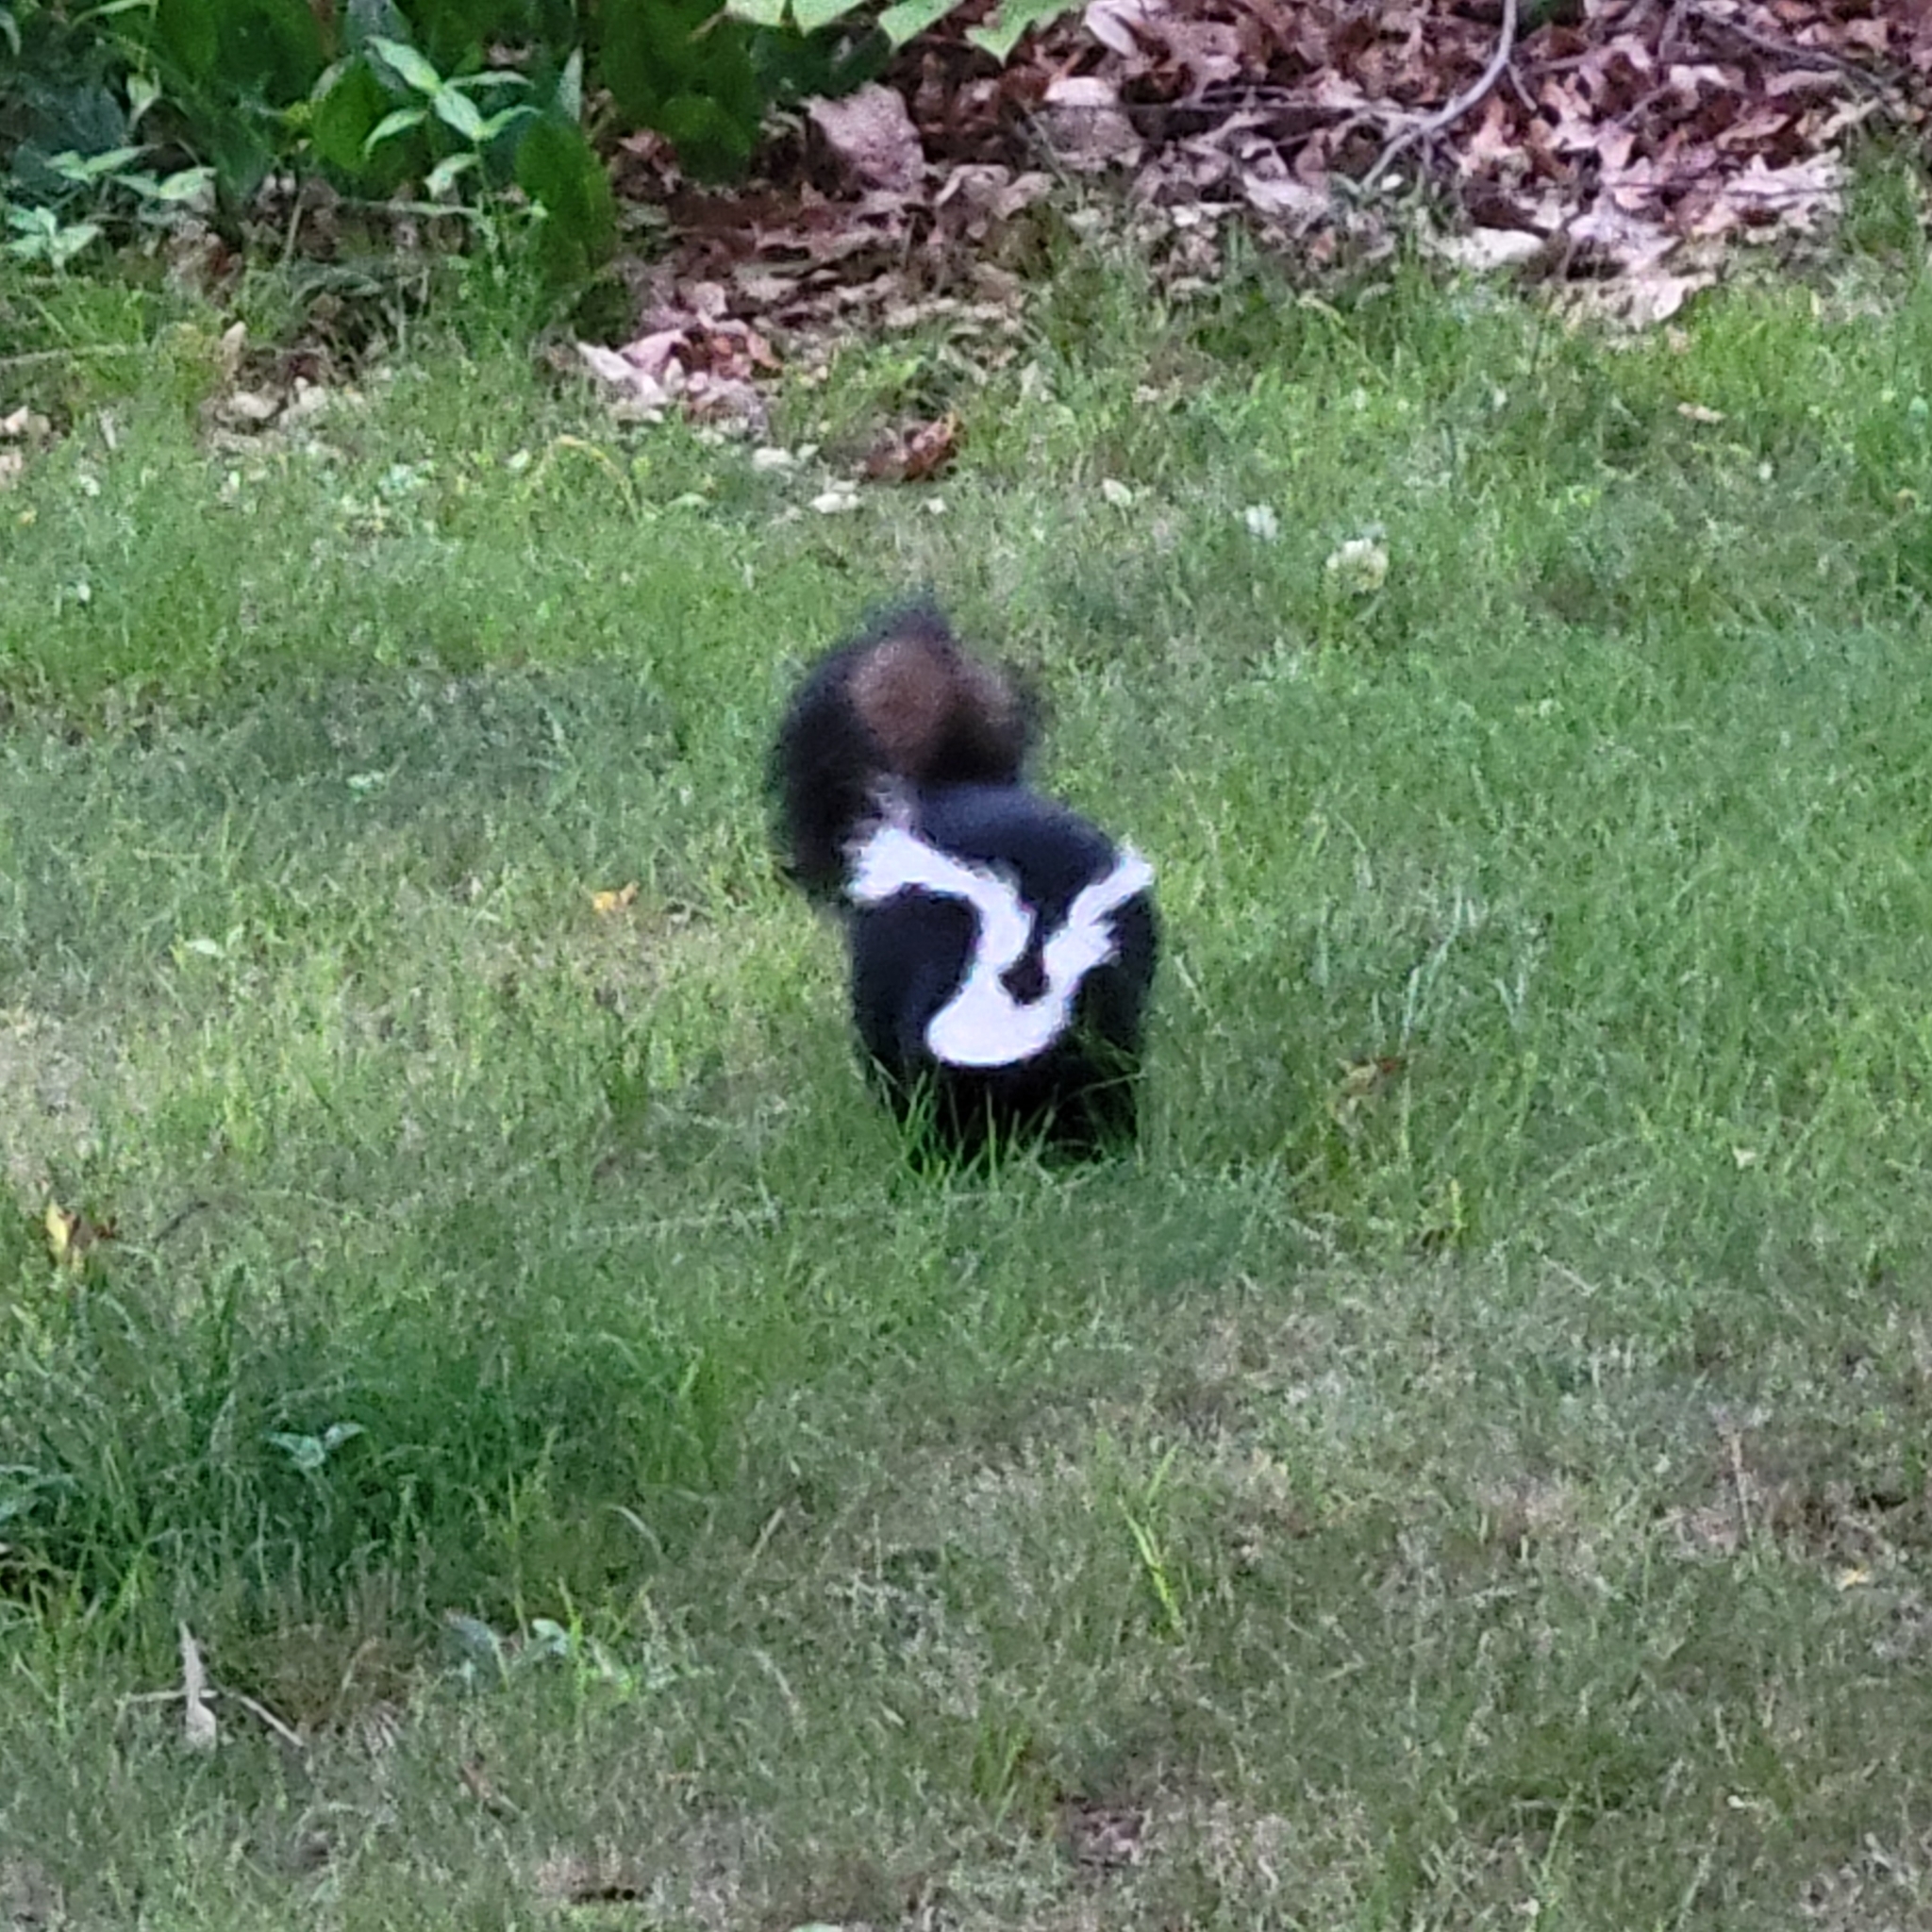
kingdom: Animalia
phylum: Chordata
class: Mammalia
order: Carnivora
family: Mephitidae
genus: Mephitis
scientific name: Mephitis mephitis
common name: Striped skunk
